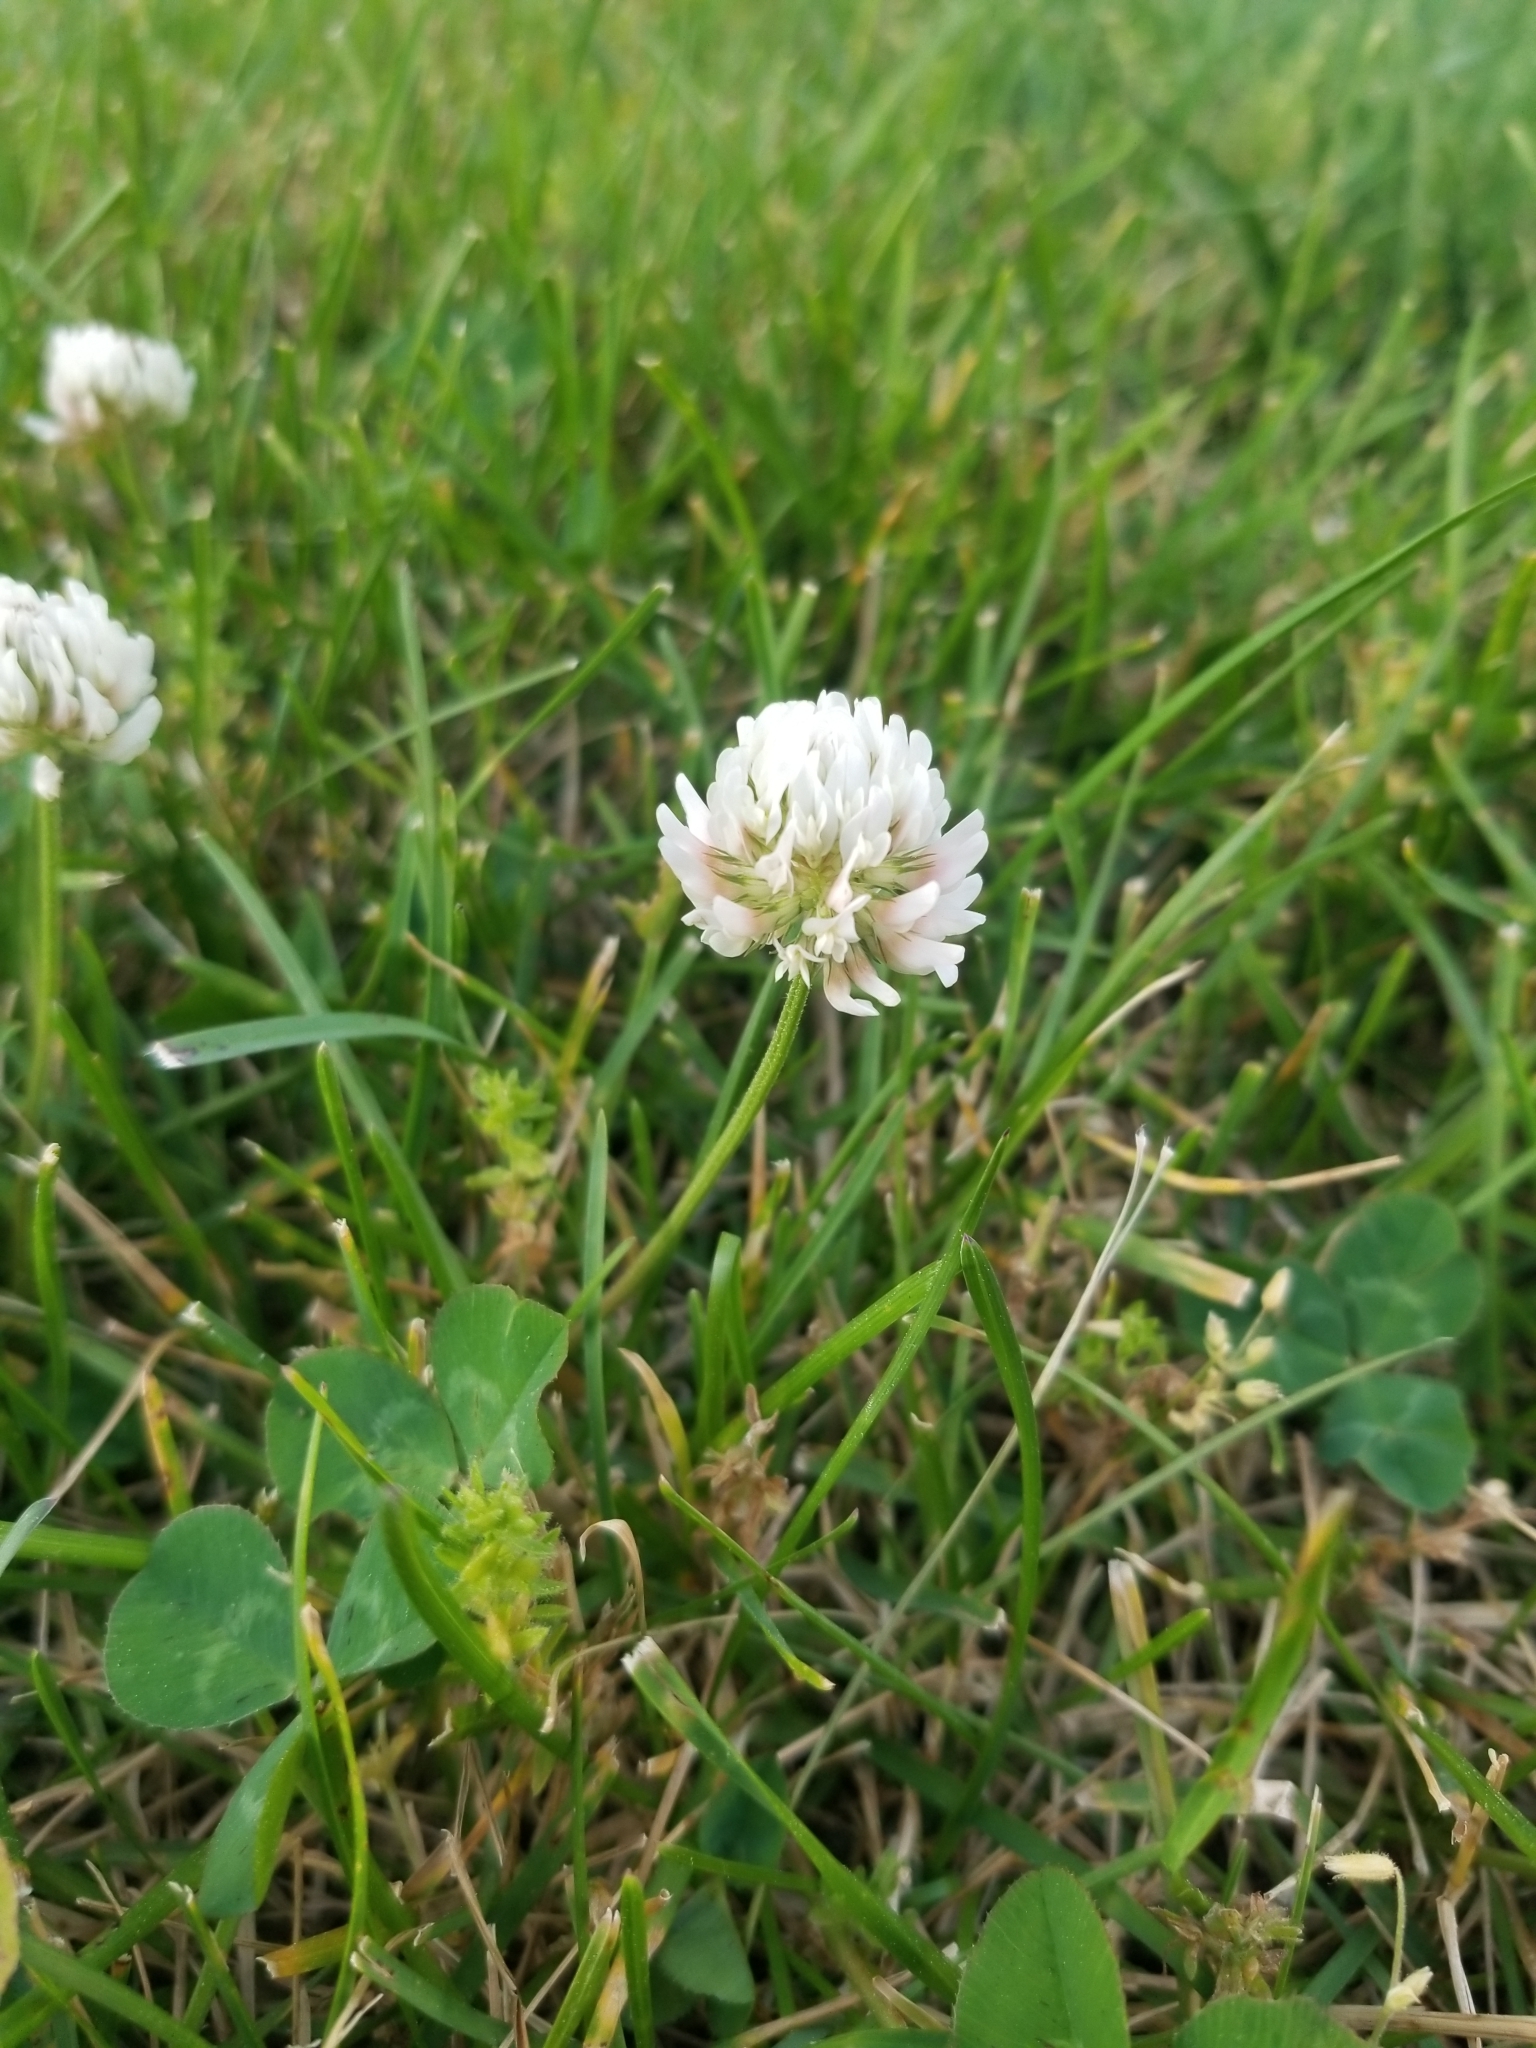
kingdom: Plantae
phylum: Tracheophyta
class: Magnoliopsida
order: Fabales
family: Fabaceae
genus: Trifolium
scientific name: Trifolium repens
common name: White clover
